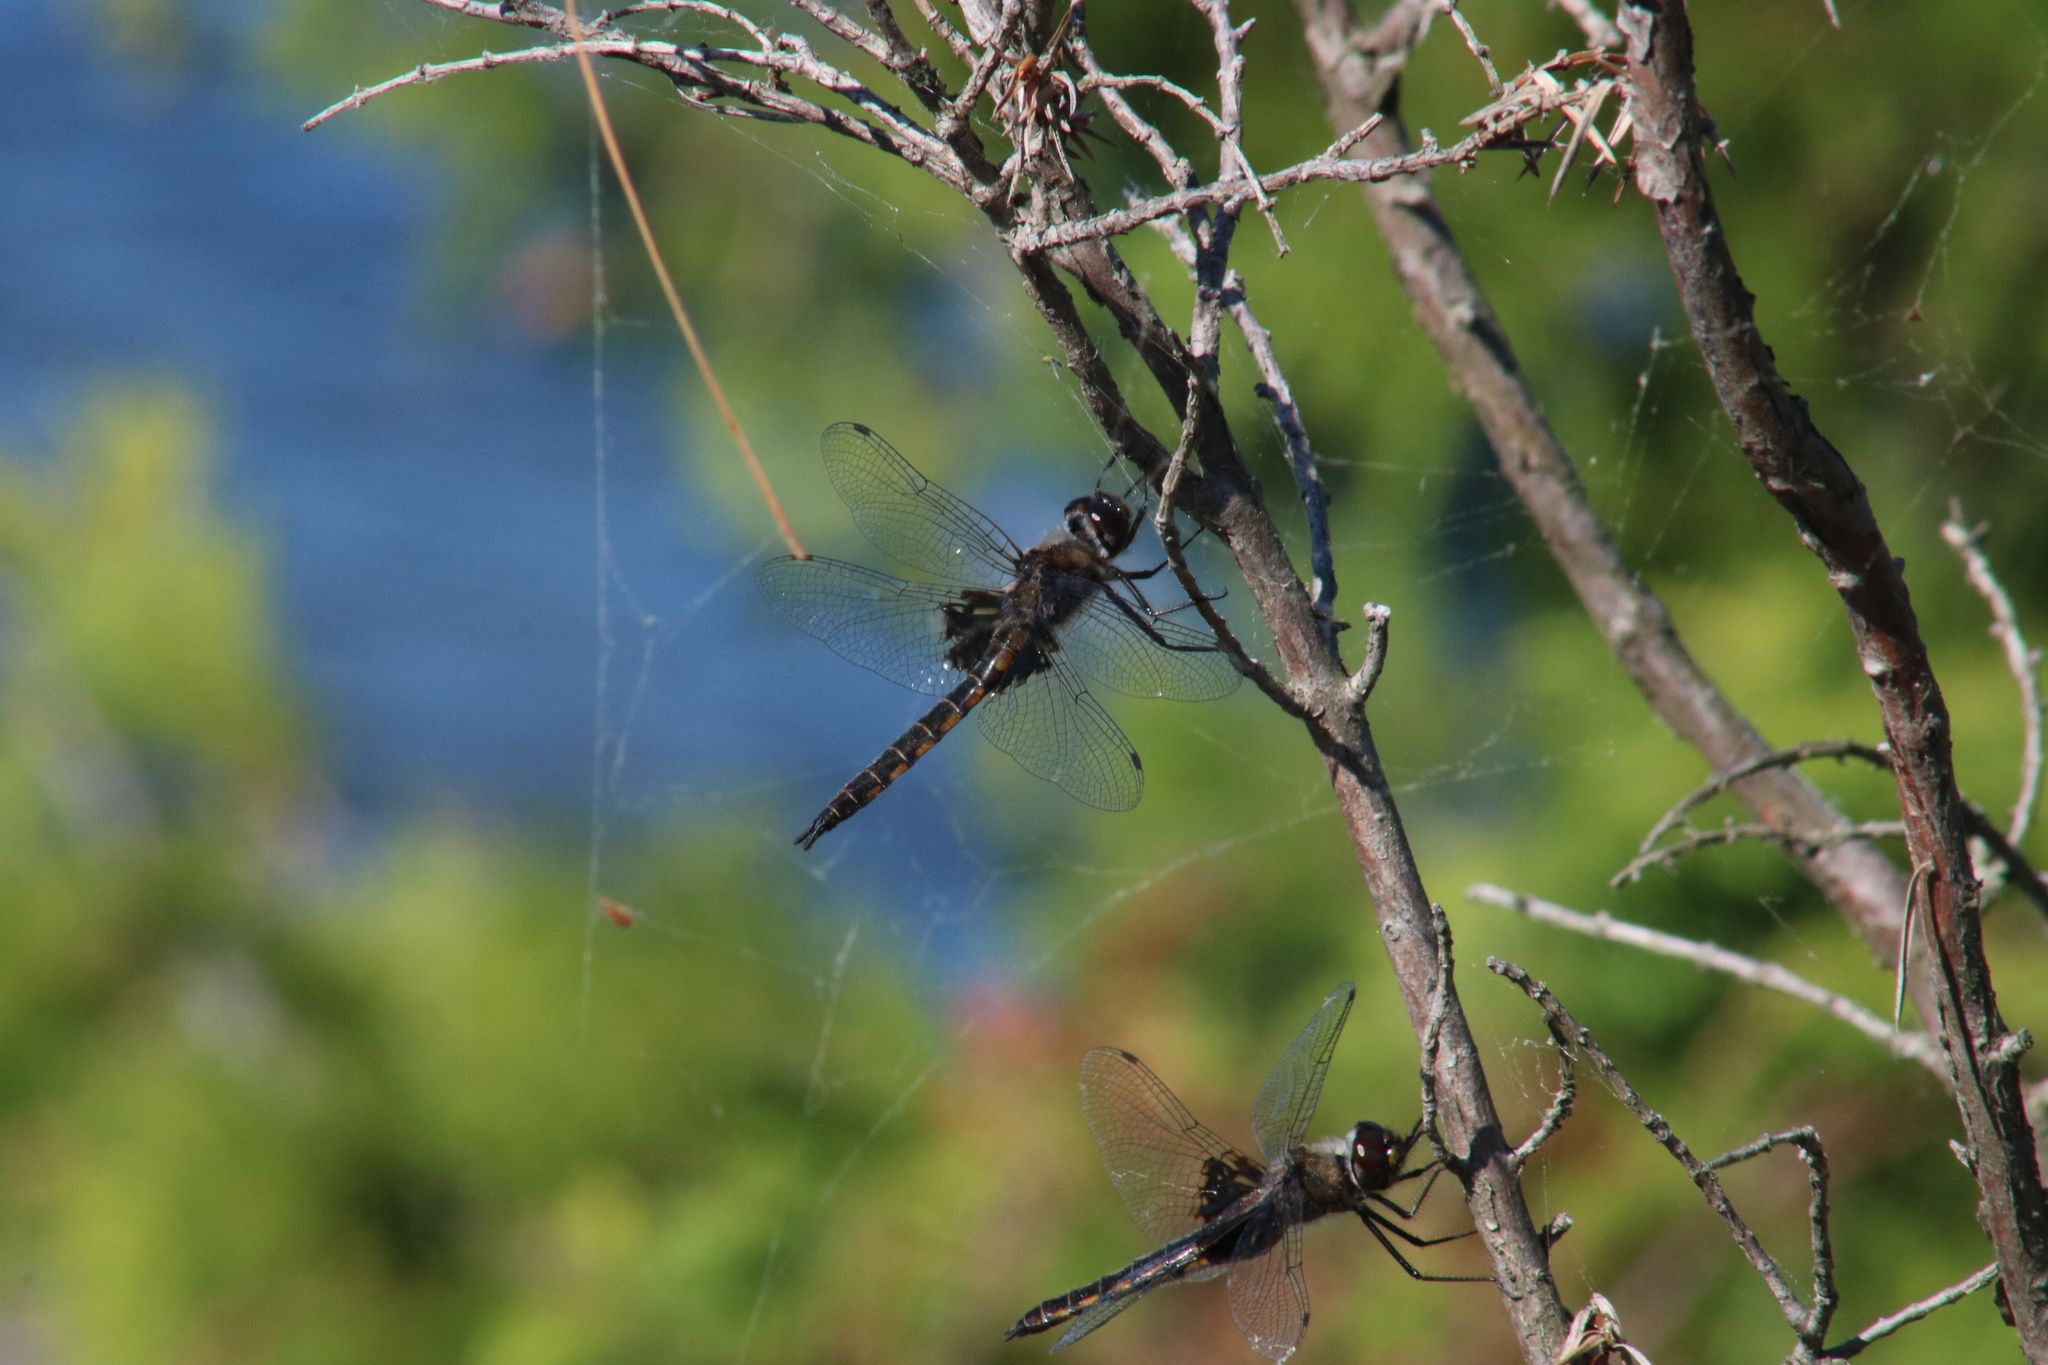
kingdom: Animalia
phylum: Arthropoda
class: Insecta
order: Odonata
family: Corduliidae
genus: Epitheca
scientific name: Epitheca cynosura
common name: Common baskettail
